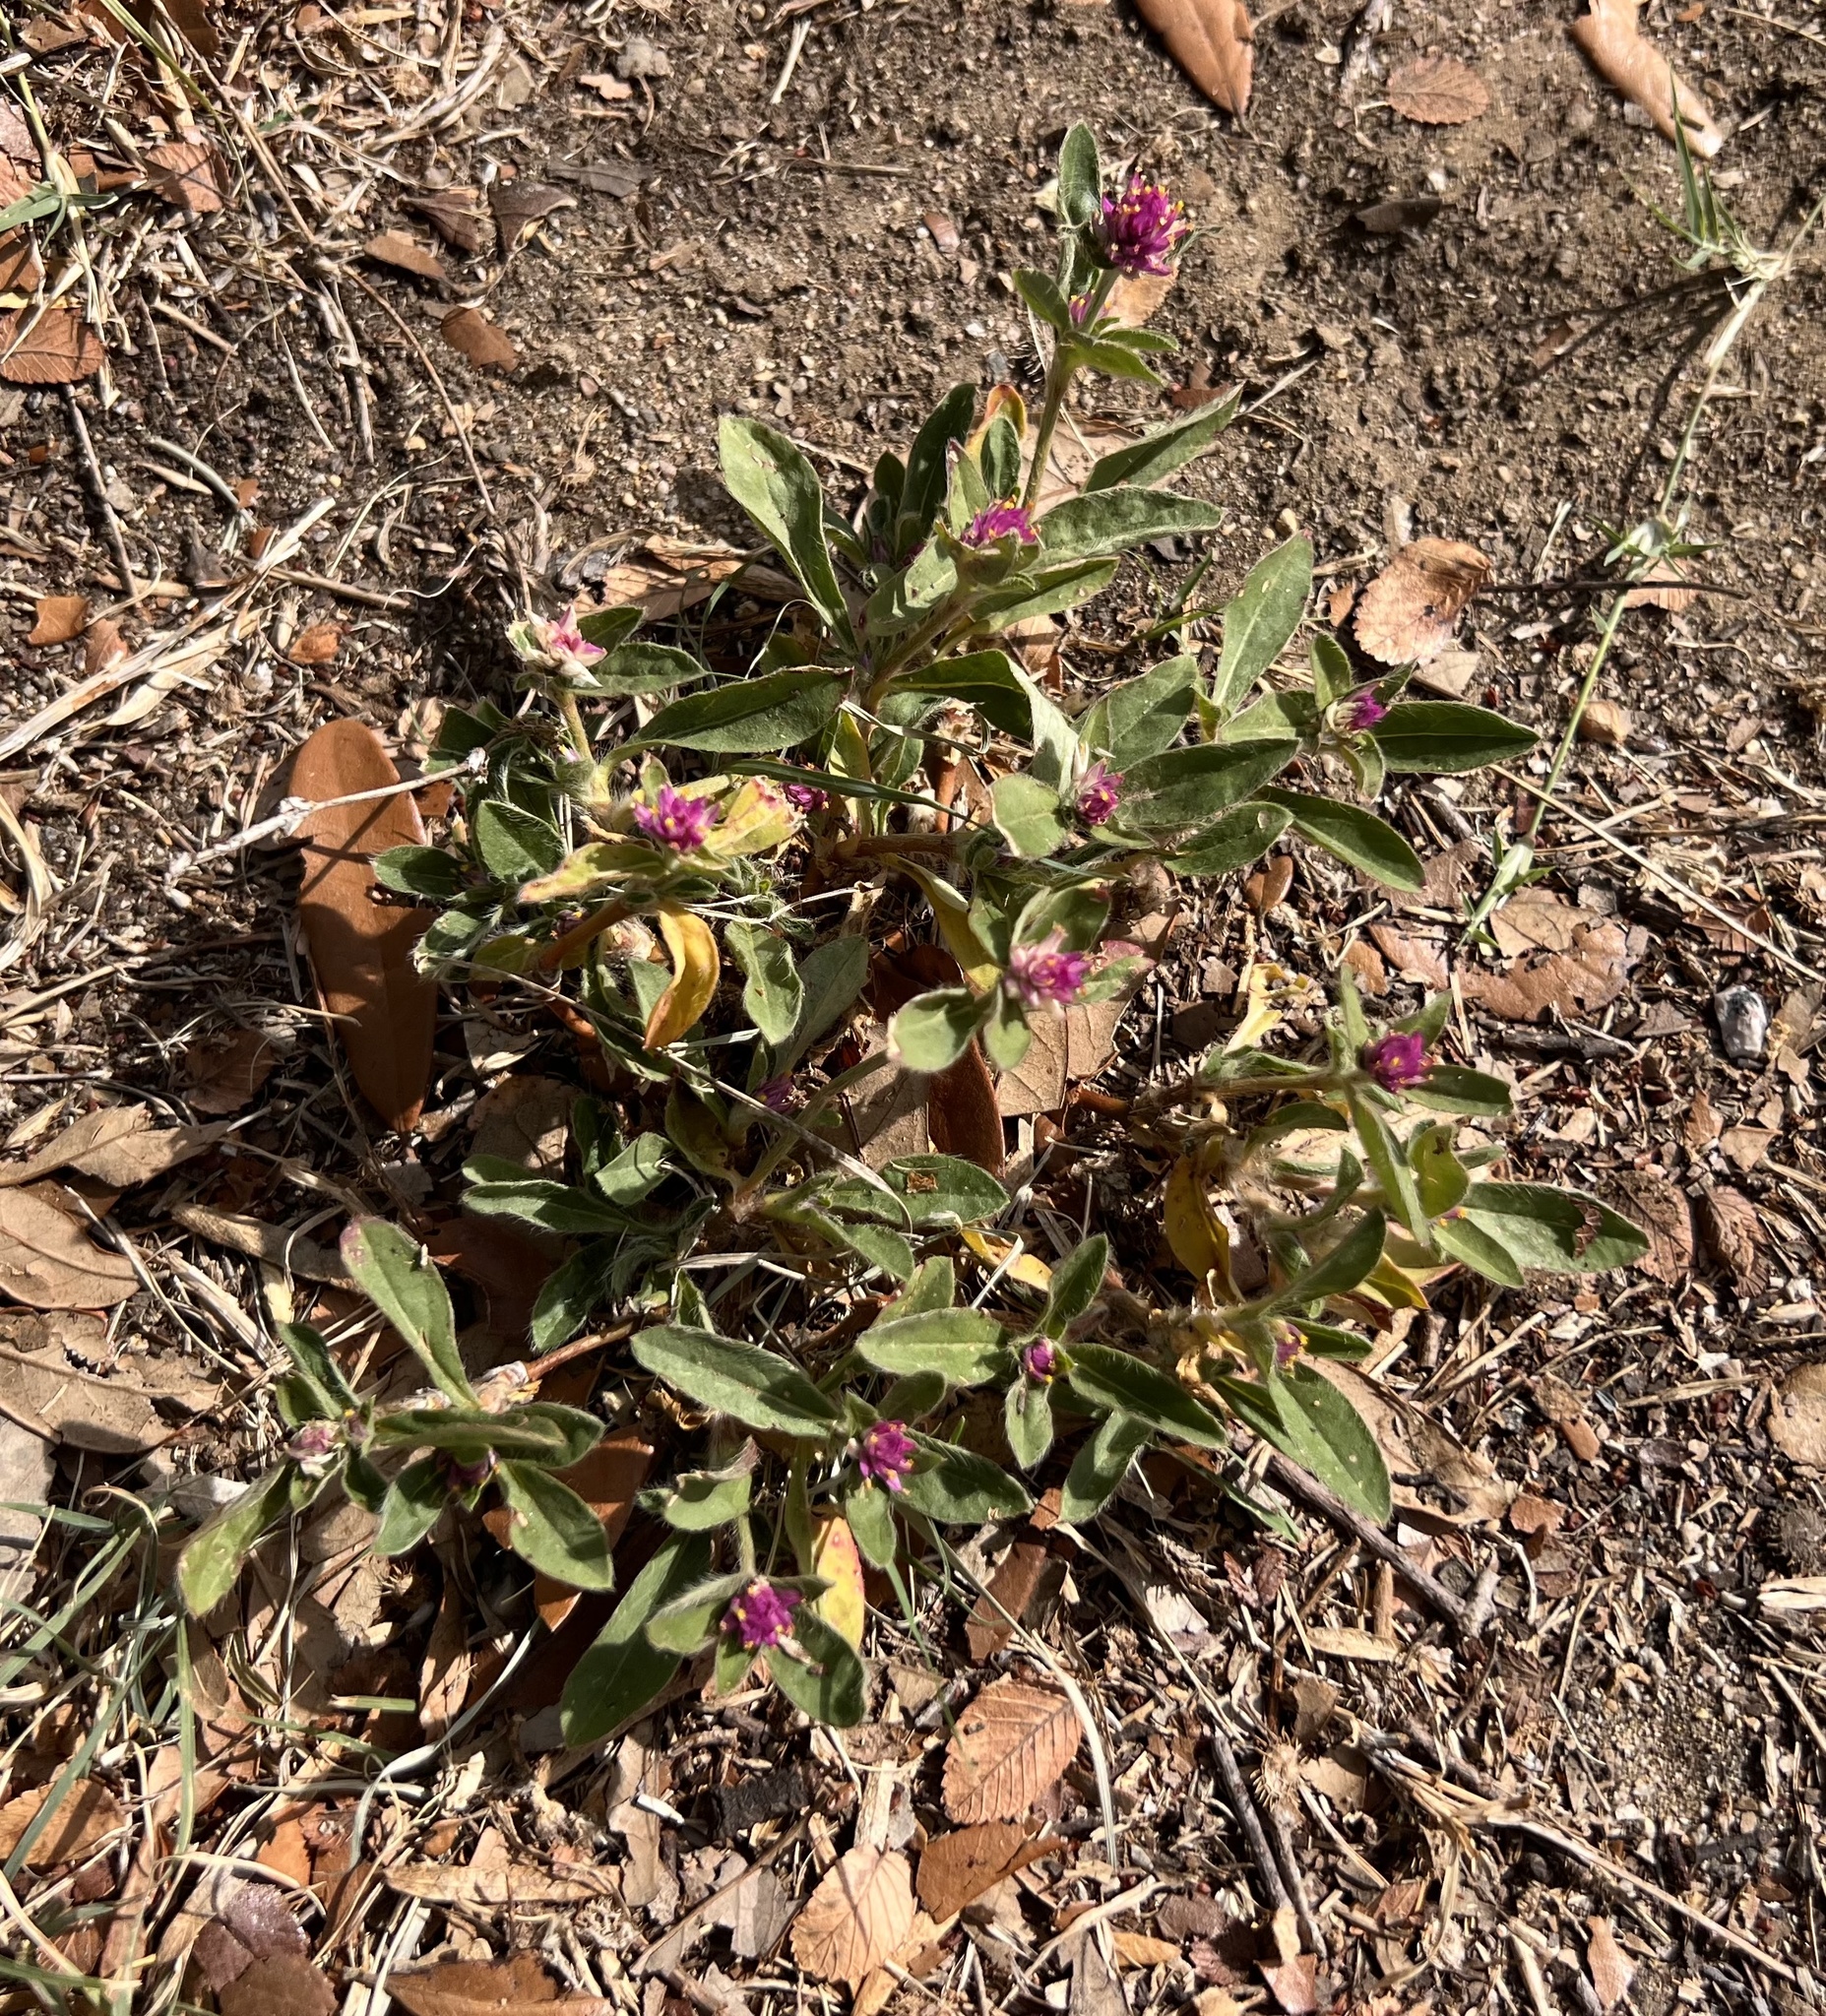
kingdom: Plantae
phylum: Tracheophyta
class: Magnoliopsida
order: Caryophyllales
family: Amaranthaceae
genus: Gomphrena
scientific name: Gomphrena serrata
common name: Arrasa con todo
